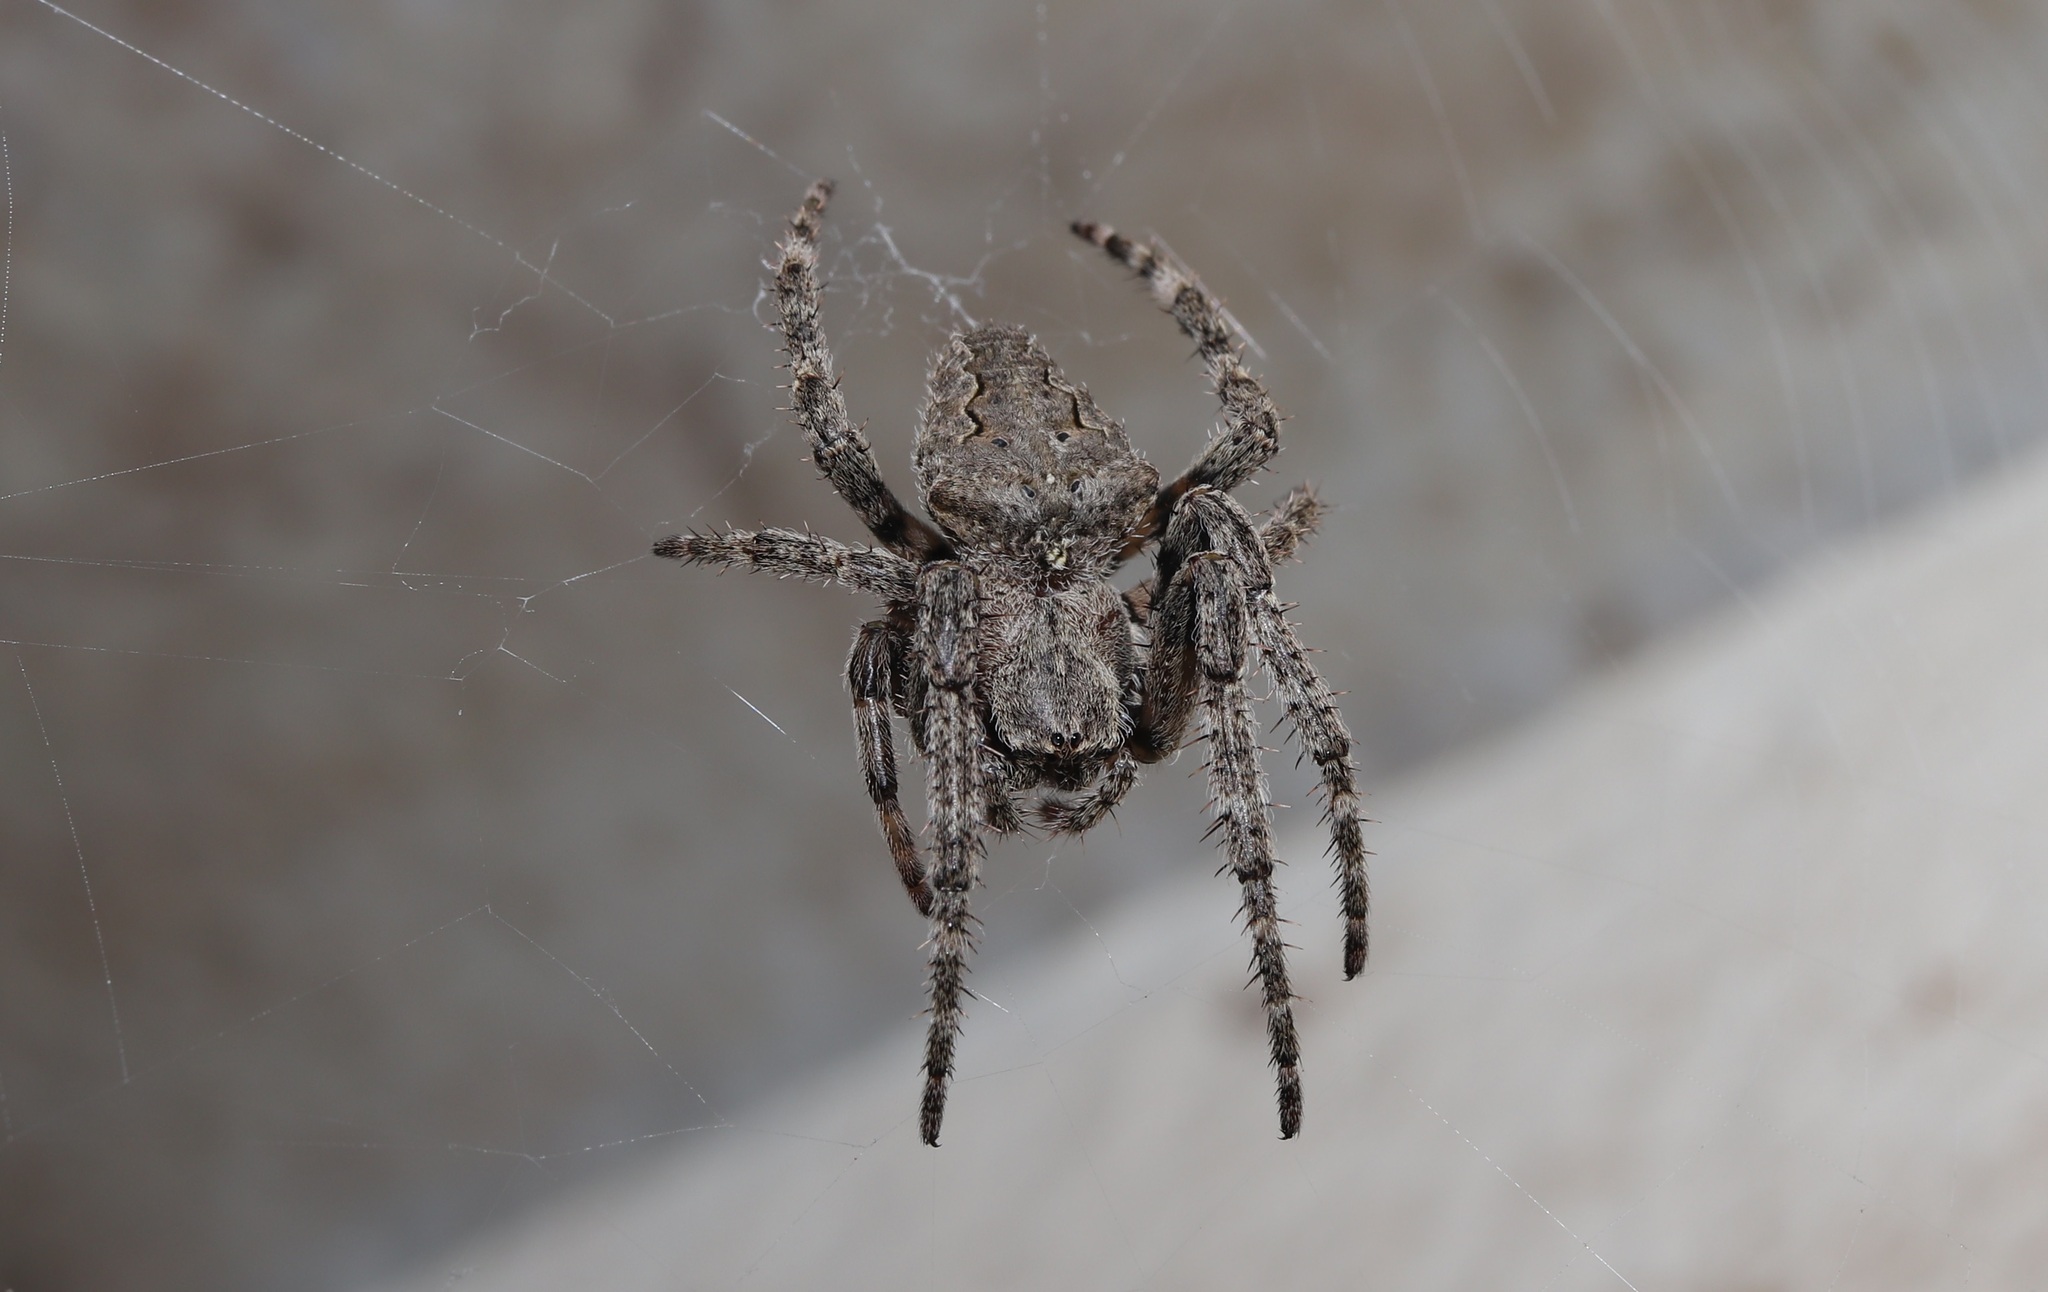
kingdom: Animalia
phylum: Arthropoda
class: Arachnida
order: Araneae
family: Araneidae
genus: Araneus
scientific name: Araneus ventricosus
